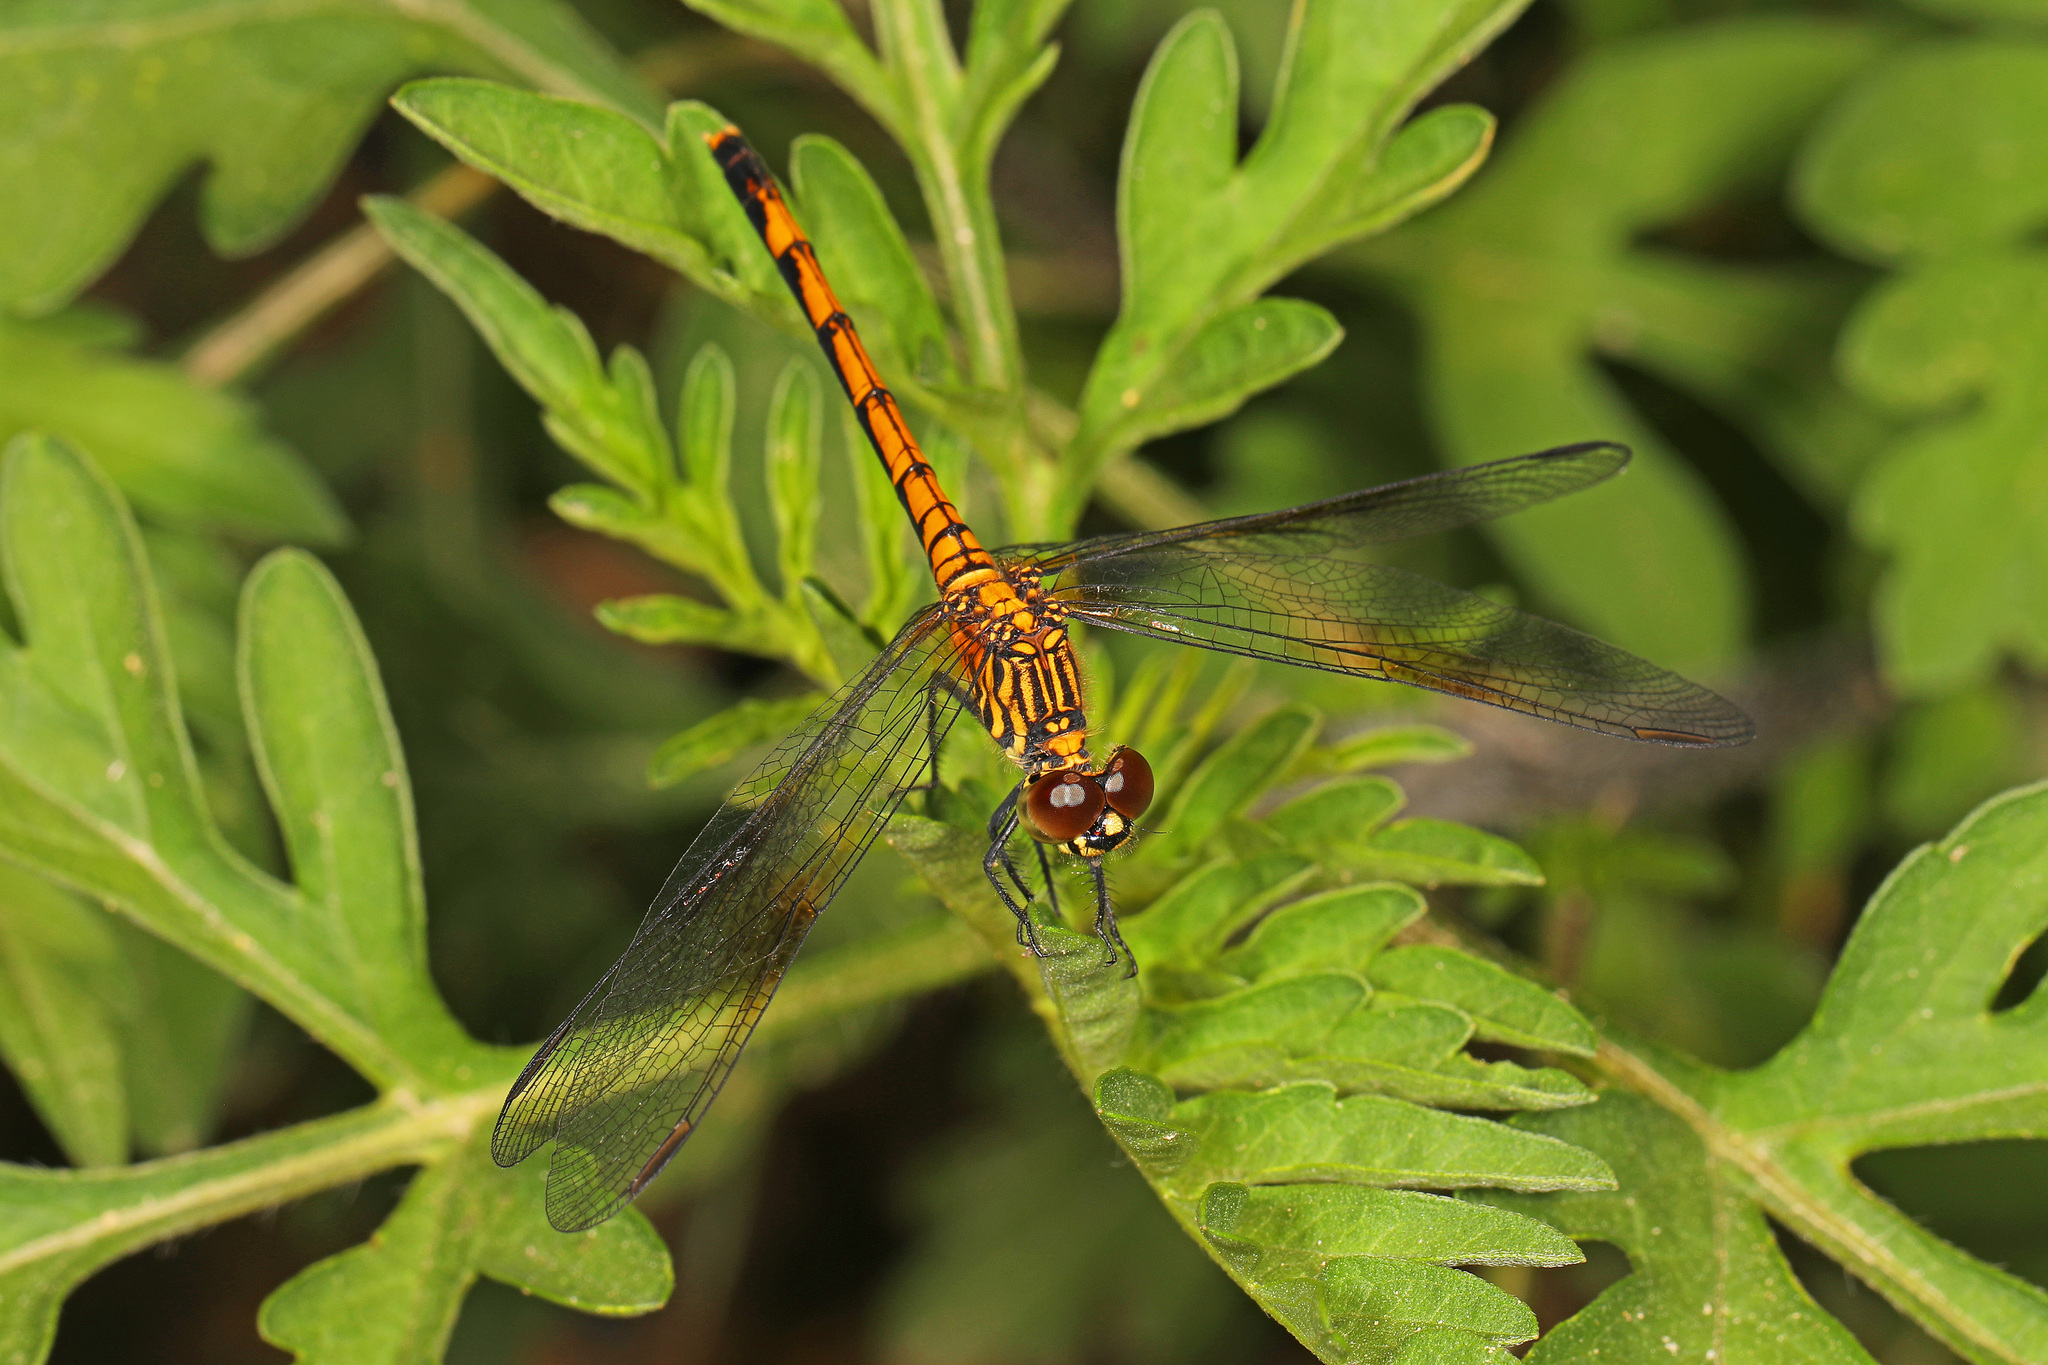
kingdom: Animalia
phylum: Arthropoda
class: Insecta
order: Odonata
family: Libellulidae
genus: Erythrodiplax
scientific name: Erythrodiplax berenice
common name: Seaside dragonlet
